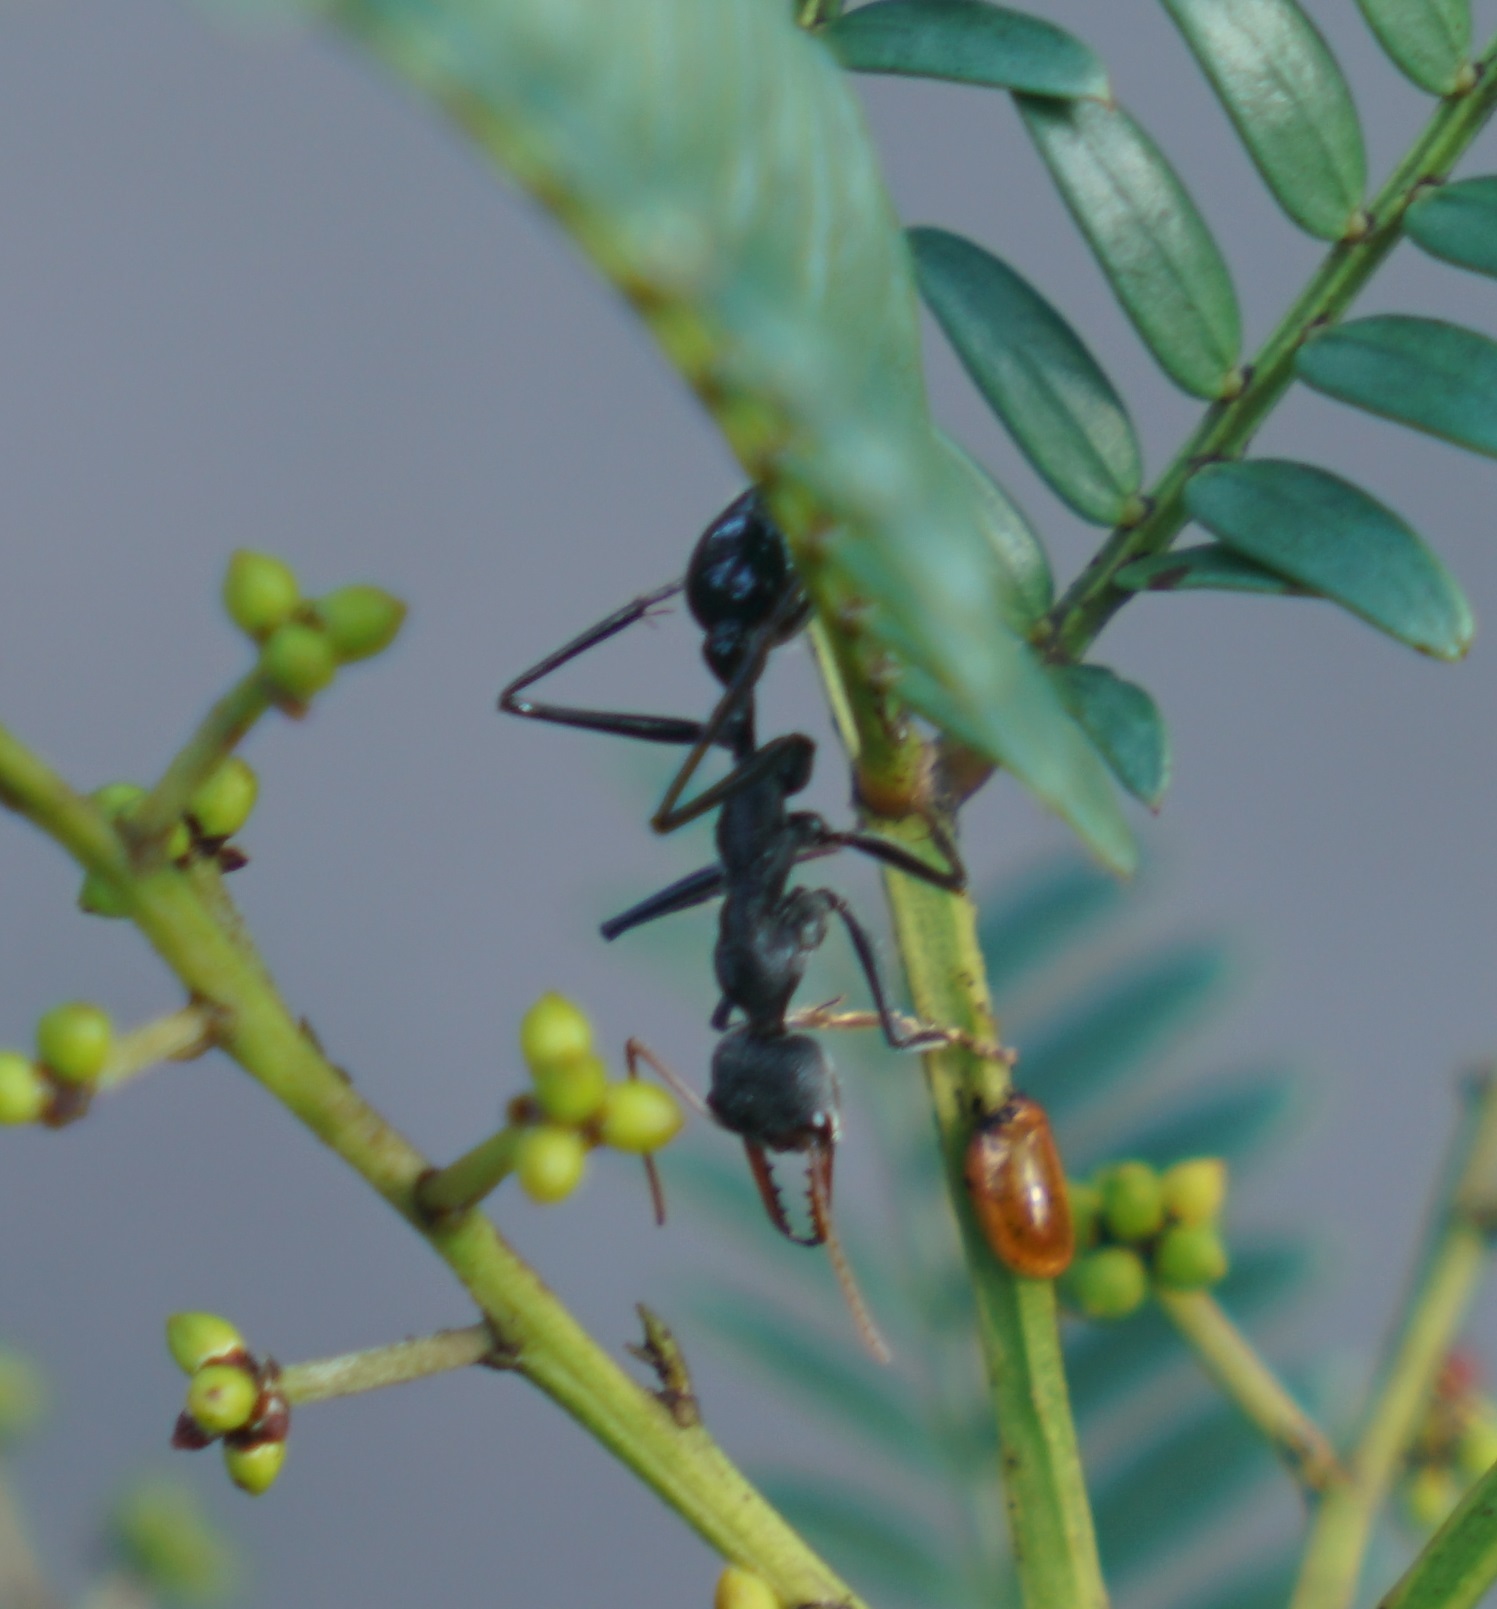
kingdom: Animalia
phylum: Arthropoda
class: Insecta
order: Hymenoptera
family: Formicidae
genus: Myrmecia
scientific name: Myrmecia simillima
